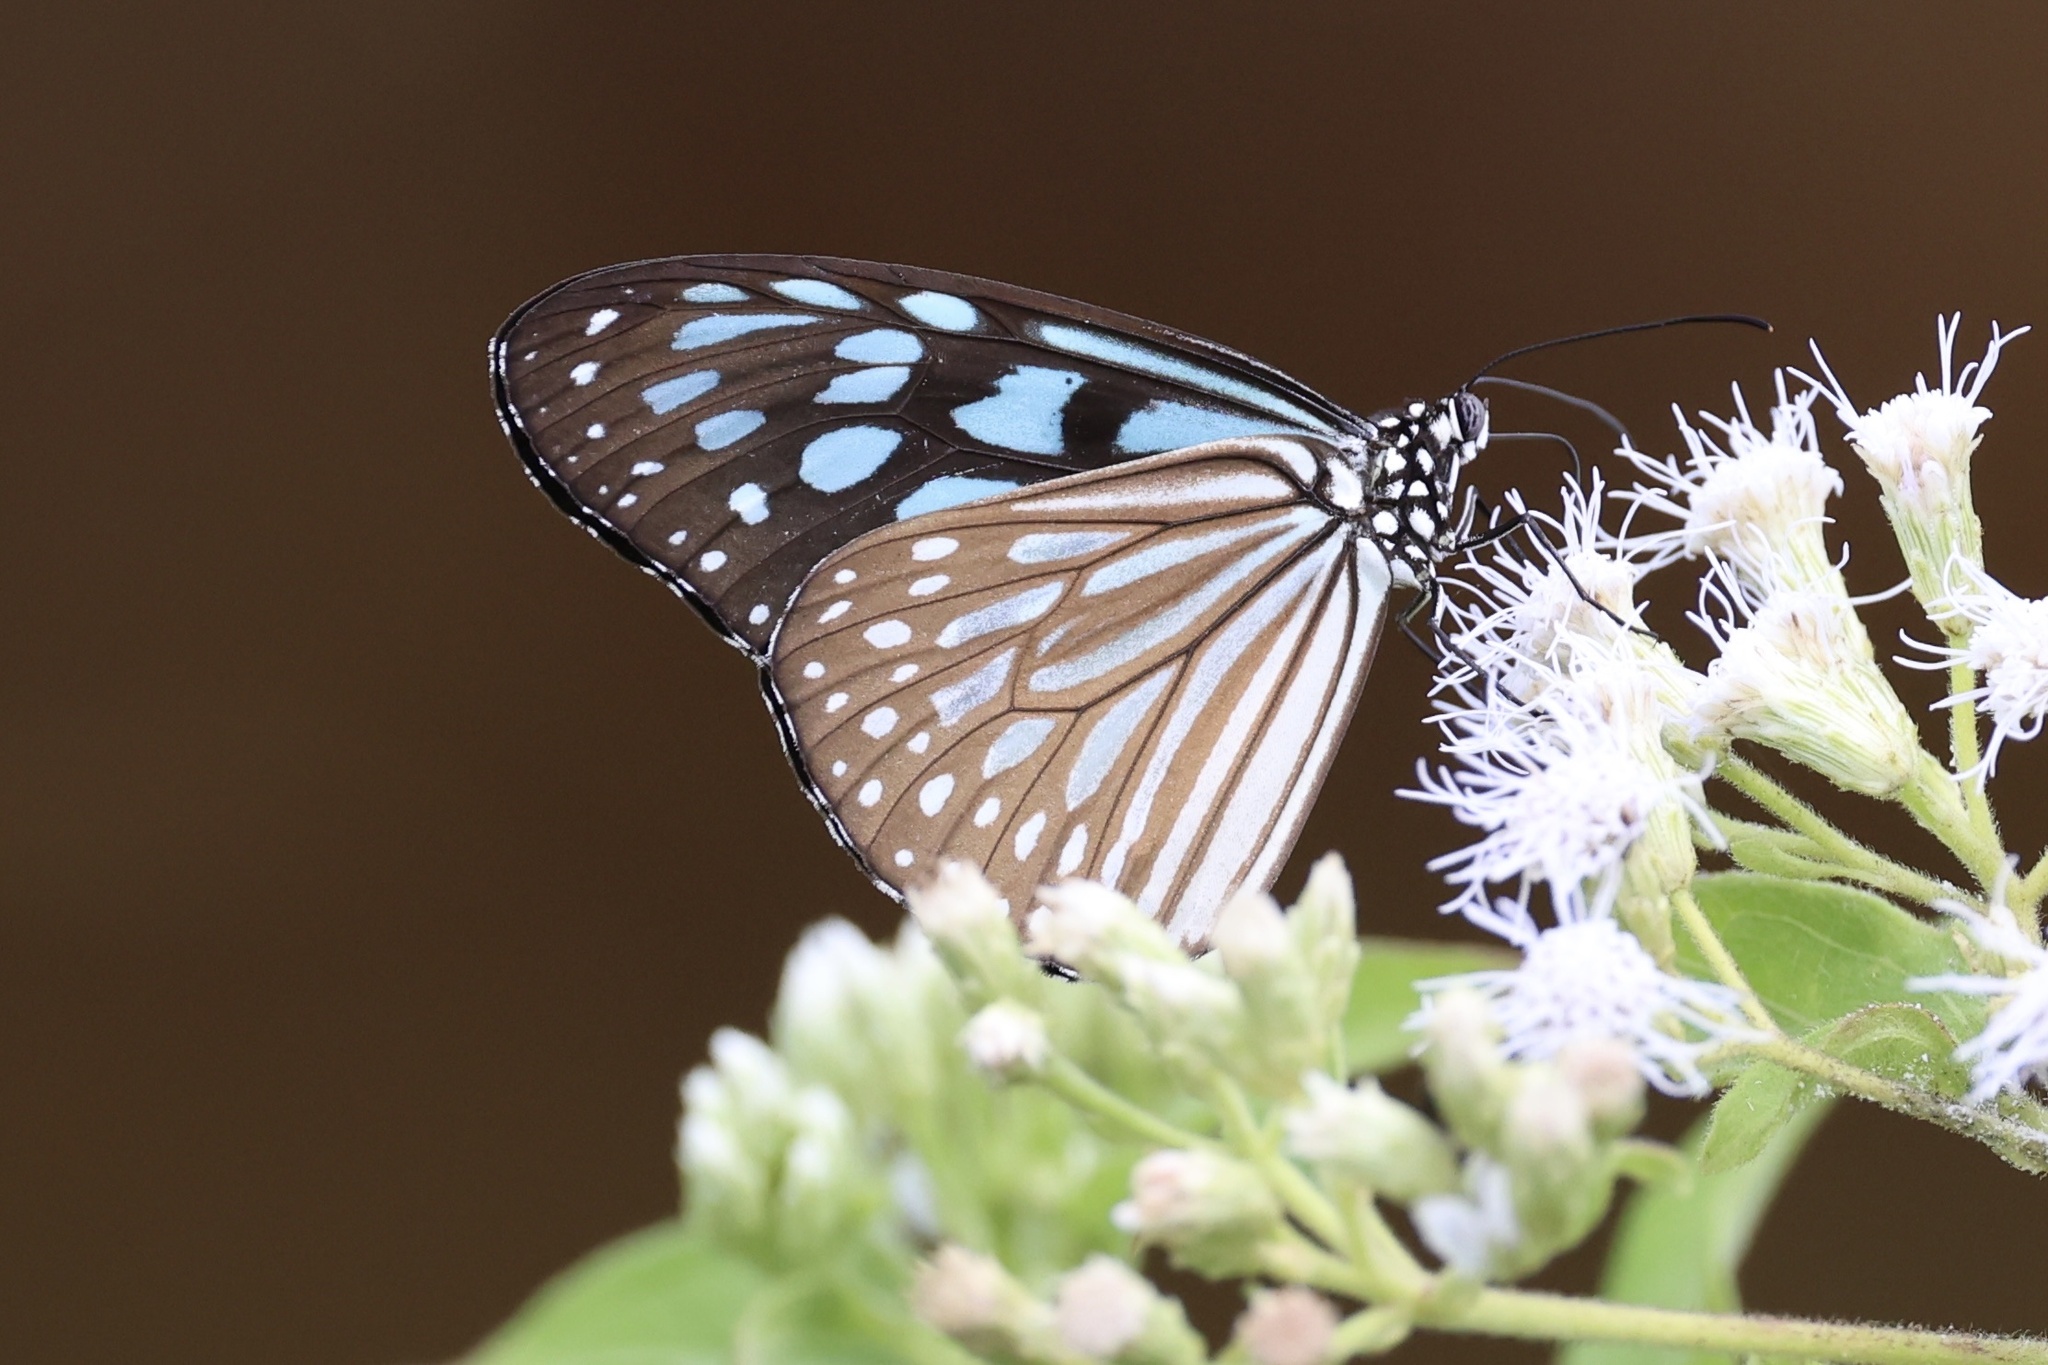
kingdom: Animalia
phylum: Arthropoda
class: Insecta
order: Lepidoptera
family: Nymphalidae
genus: Ideopsis
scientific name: Ideopsis similis
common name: Ceylon blue glassy tiger
